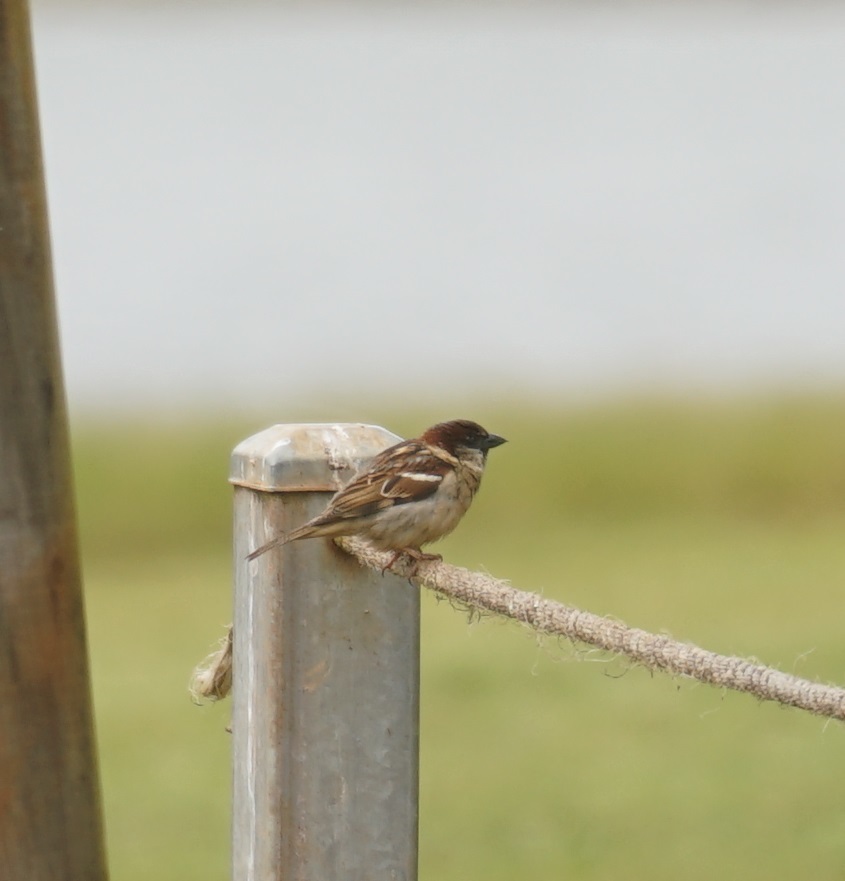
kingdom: Animalia
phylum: Chordata
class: Aves
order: Passeriformes
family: Passeridae
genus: Passer
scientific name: Passer domesticus
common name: House sparrow
